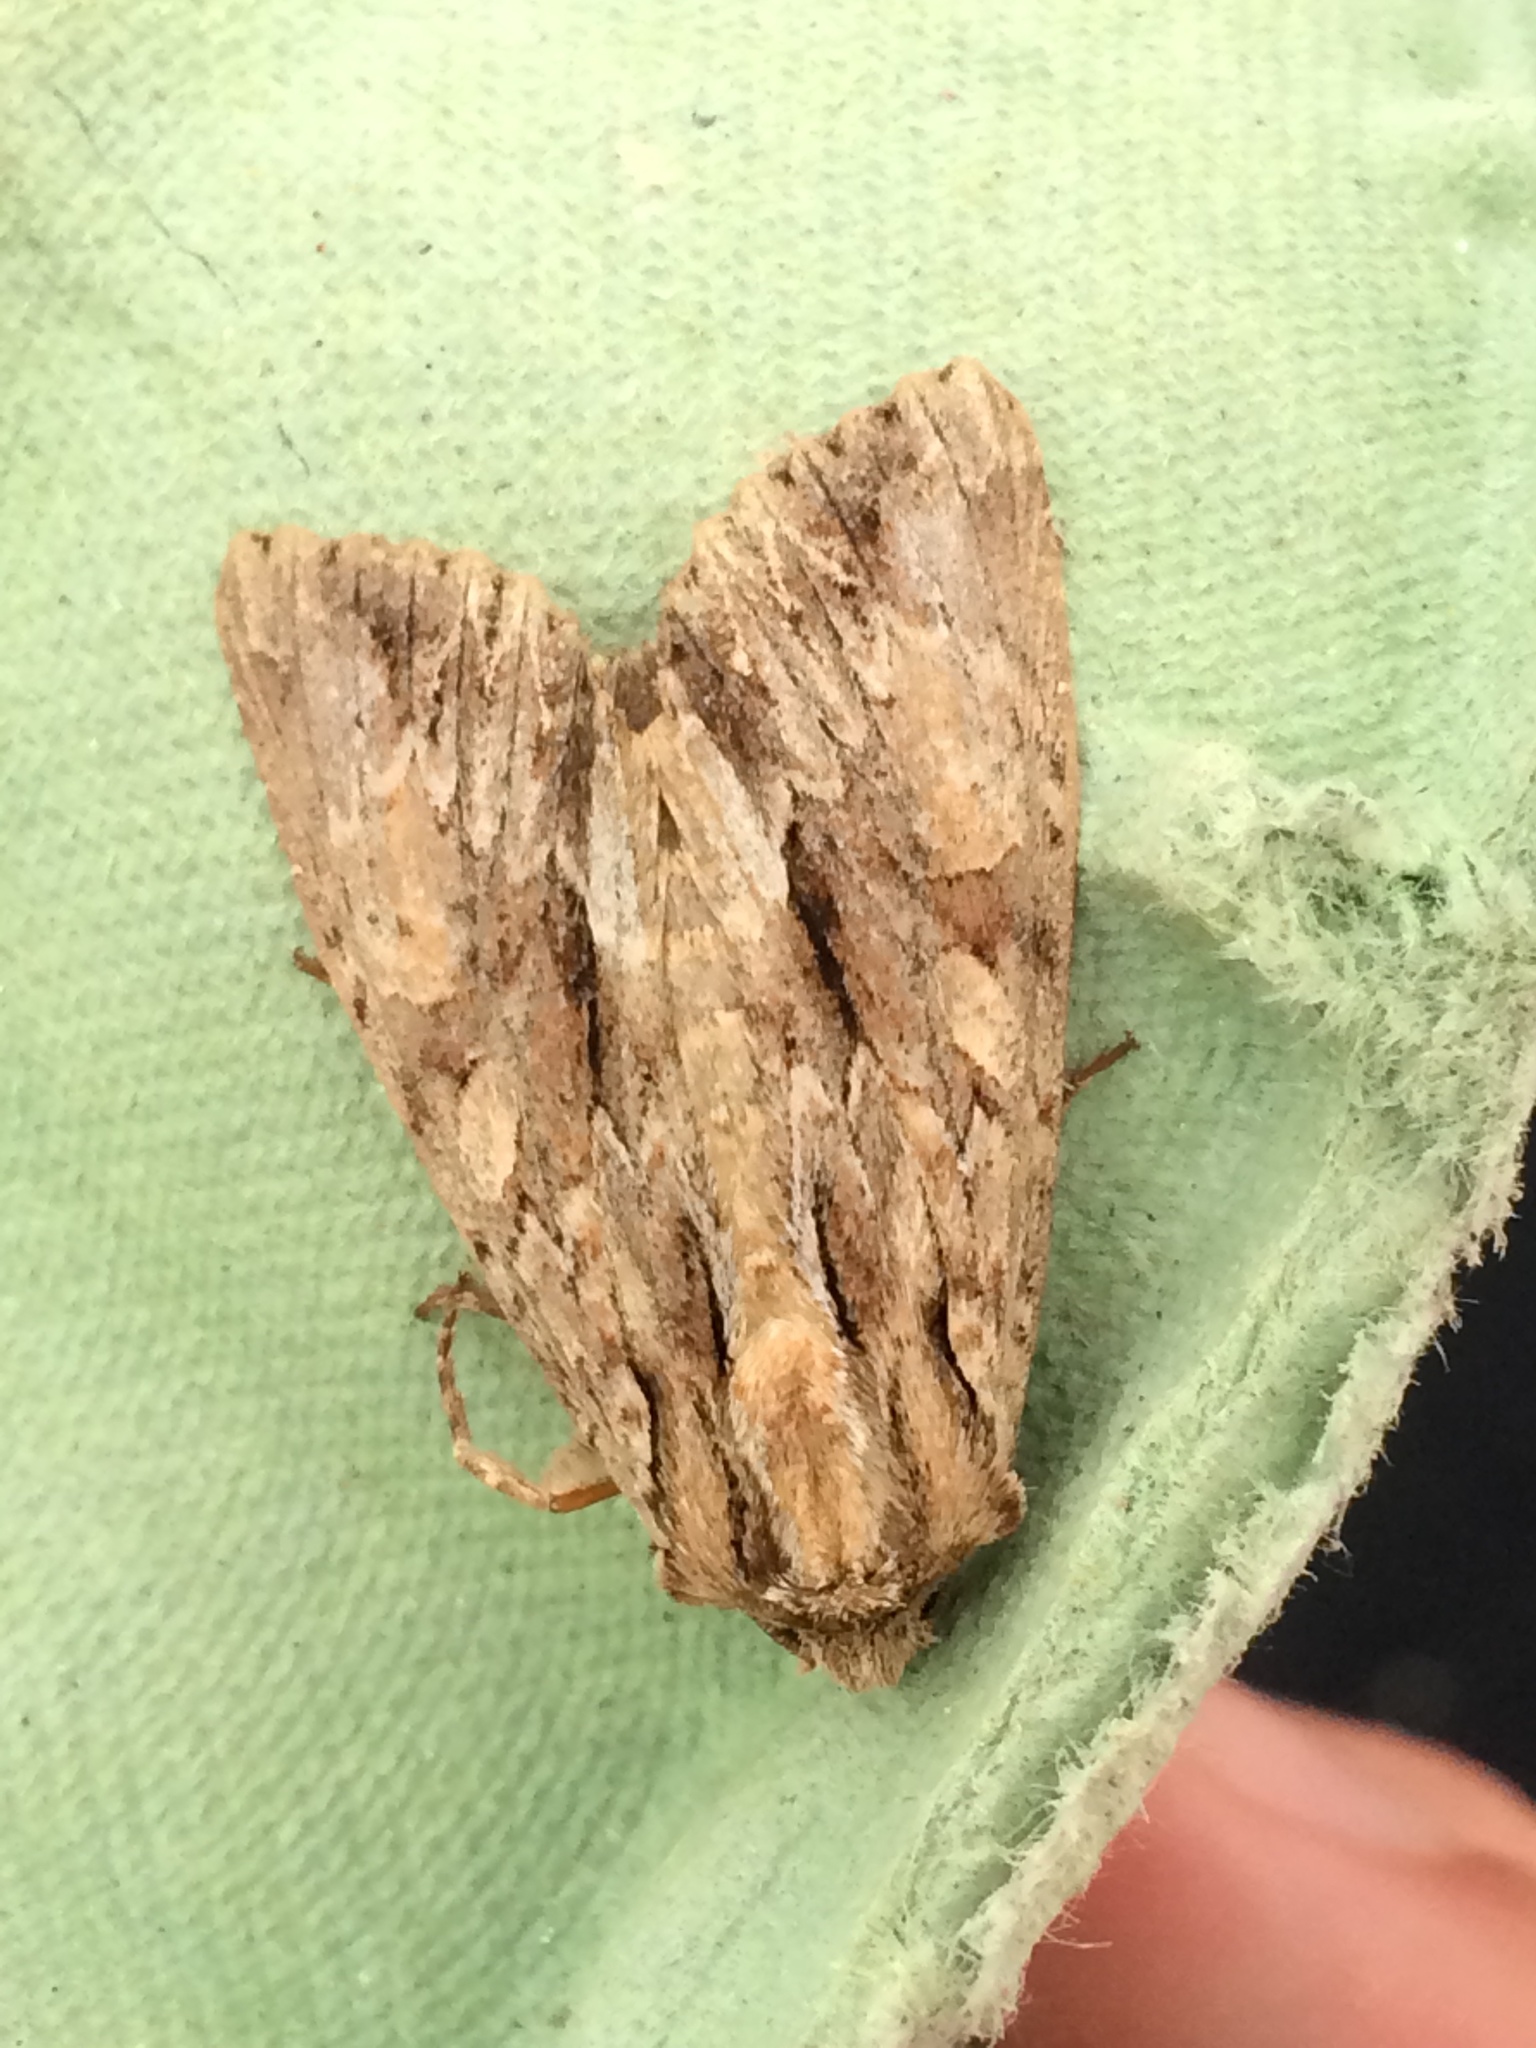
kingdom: Animalia
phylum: Arthropoda
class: Insecta
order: Lepidoptera
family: Noctuidae
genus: Apamea
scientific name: Apamea monoglypha
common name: Dark arches
